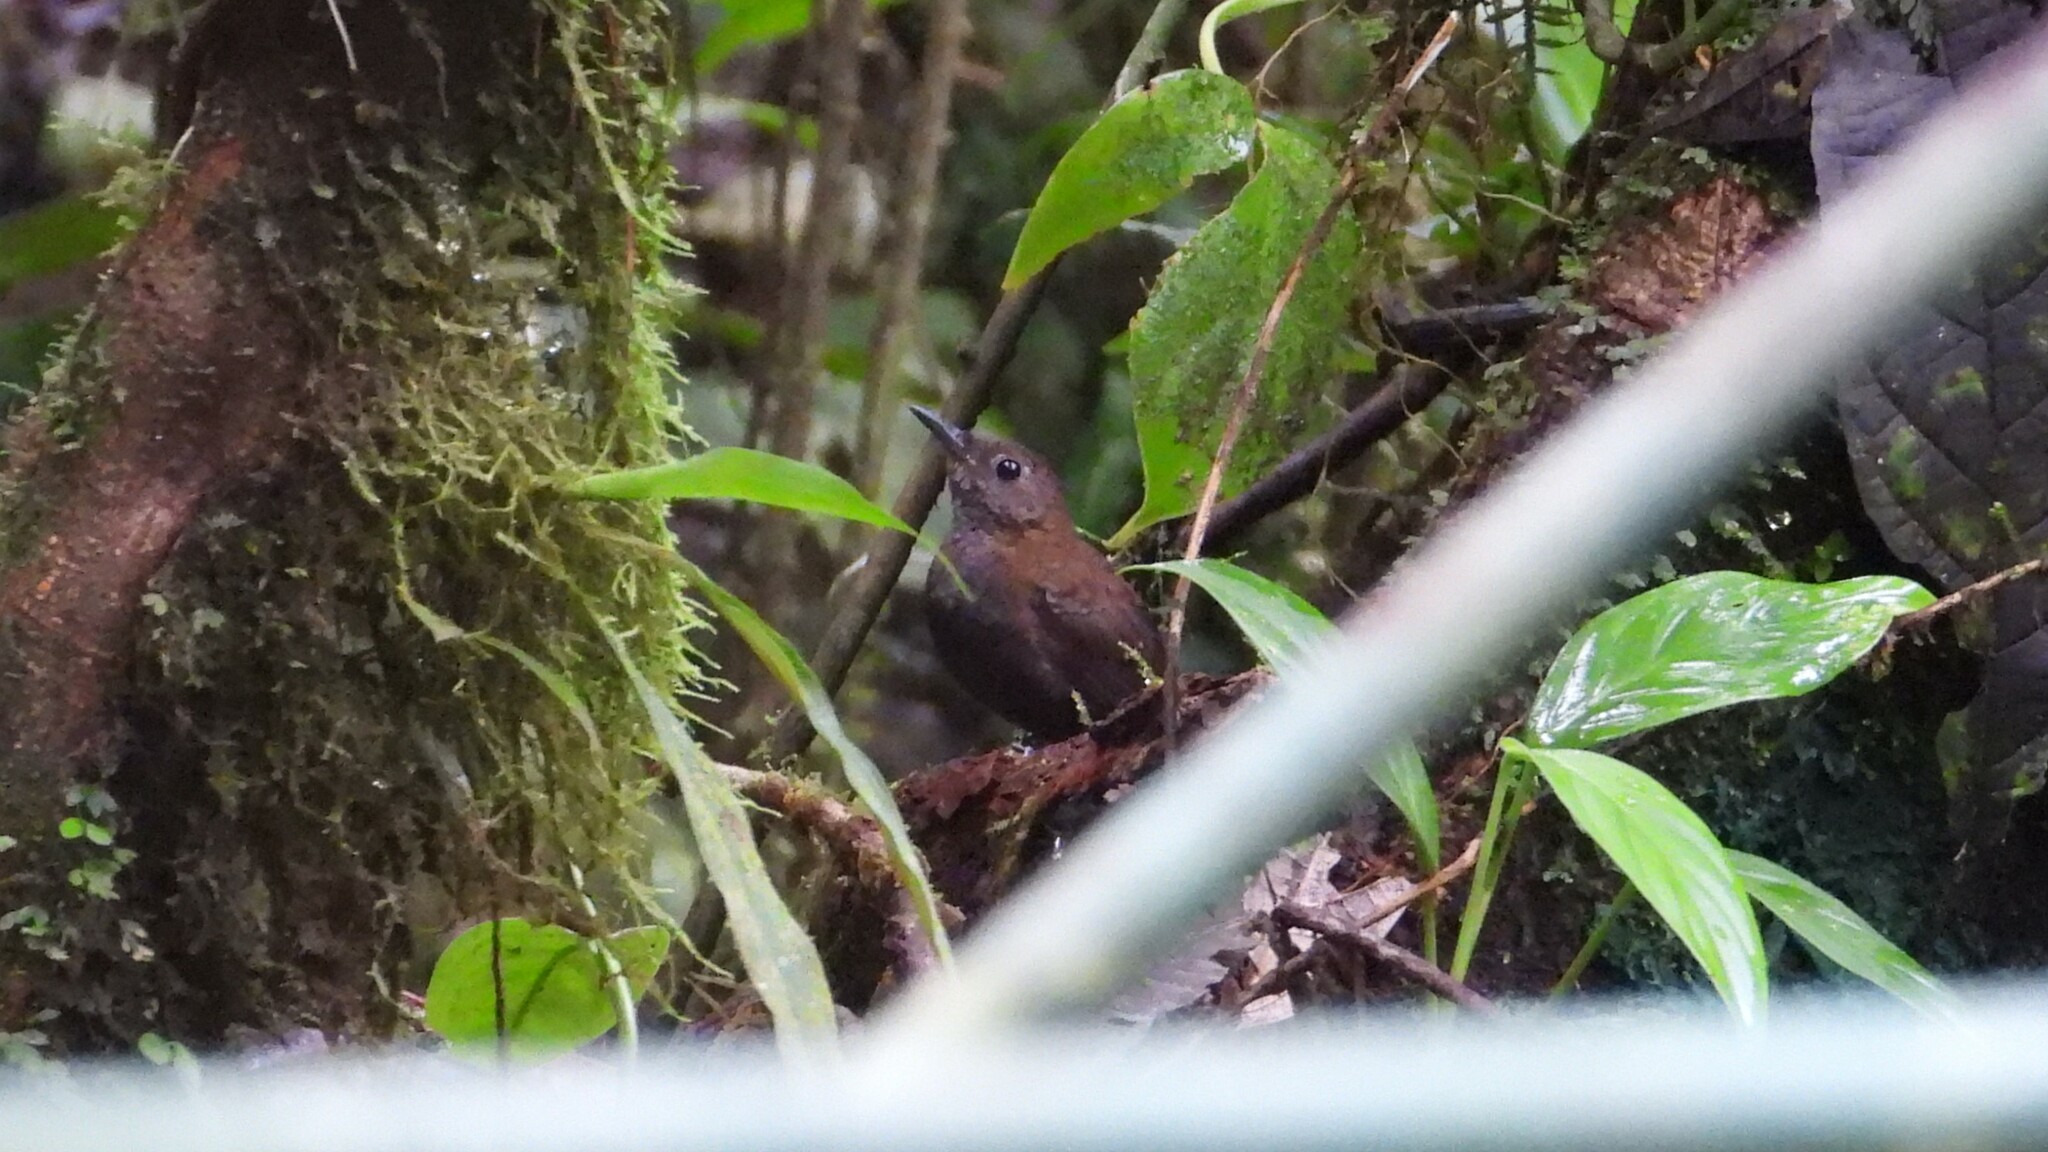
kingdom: Animalia
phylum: Chordata
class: Aves
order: Passeriformes
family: Troglodytidae
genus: Microcerculus
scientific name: Microcerculus philomela
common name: Northern nightingale-wren
